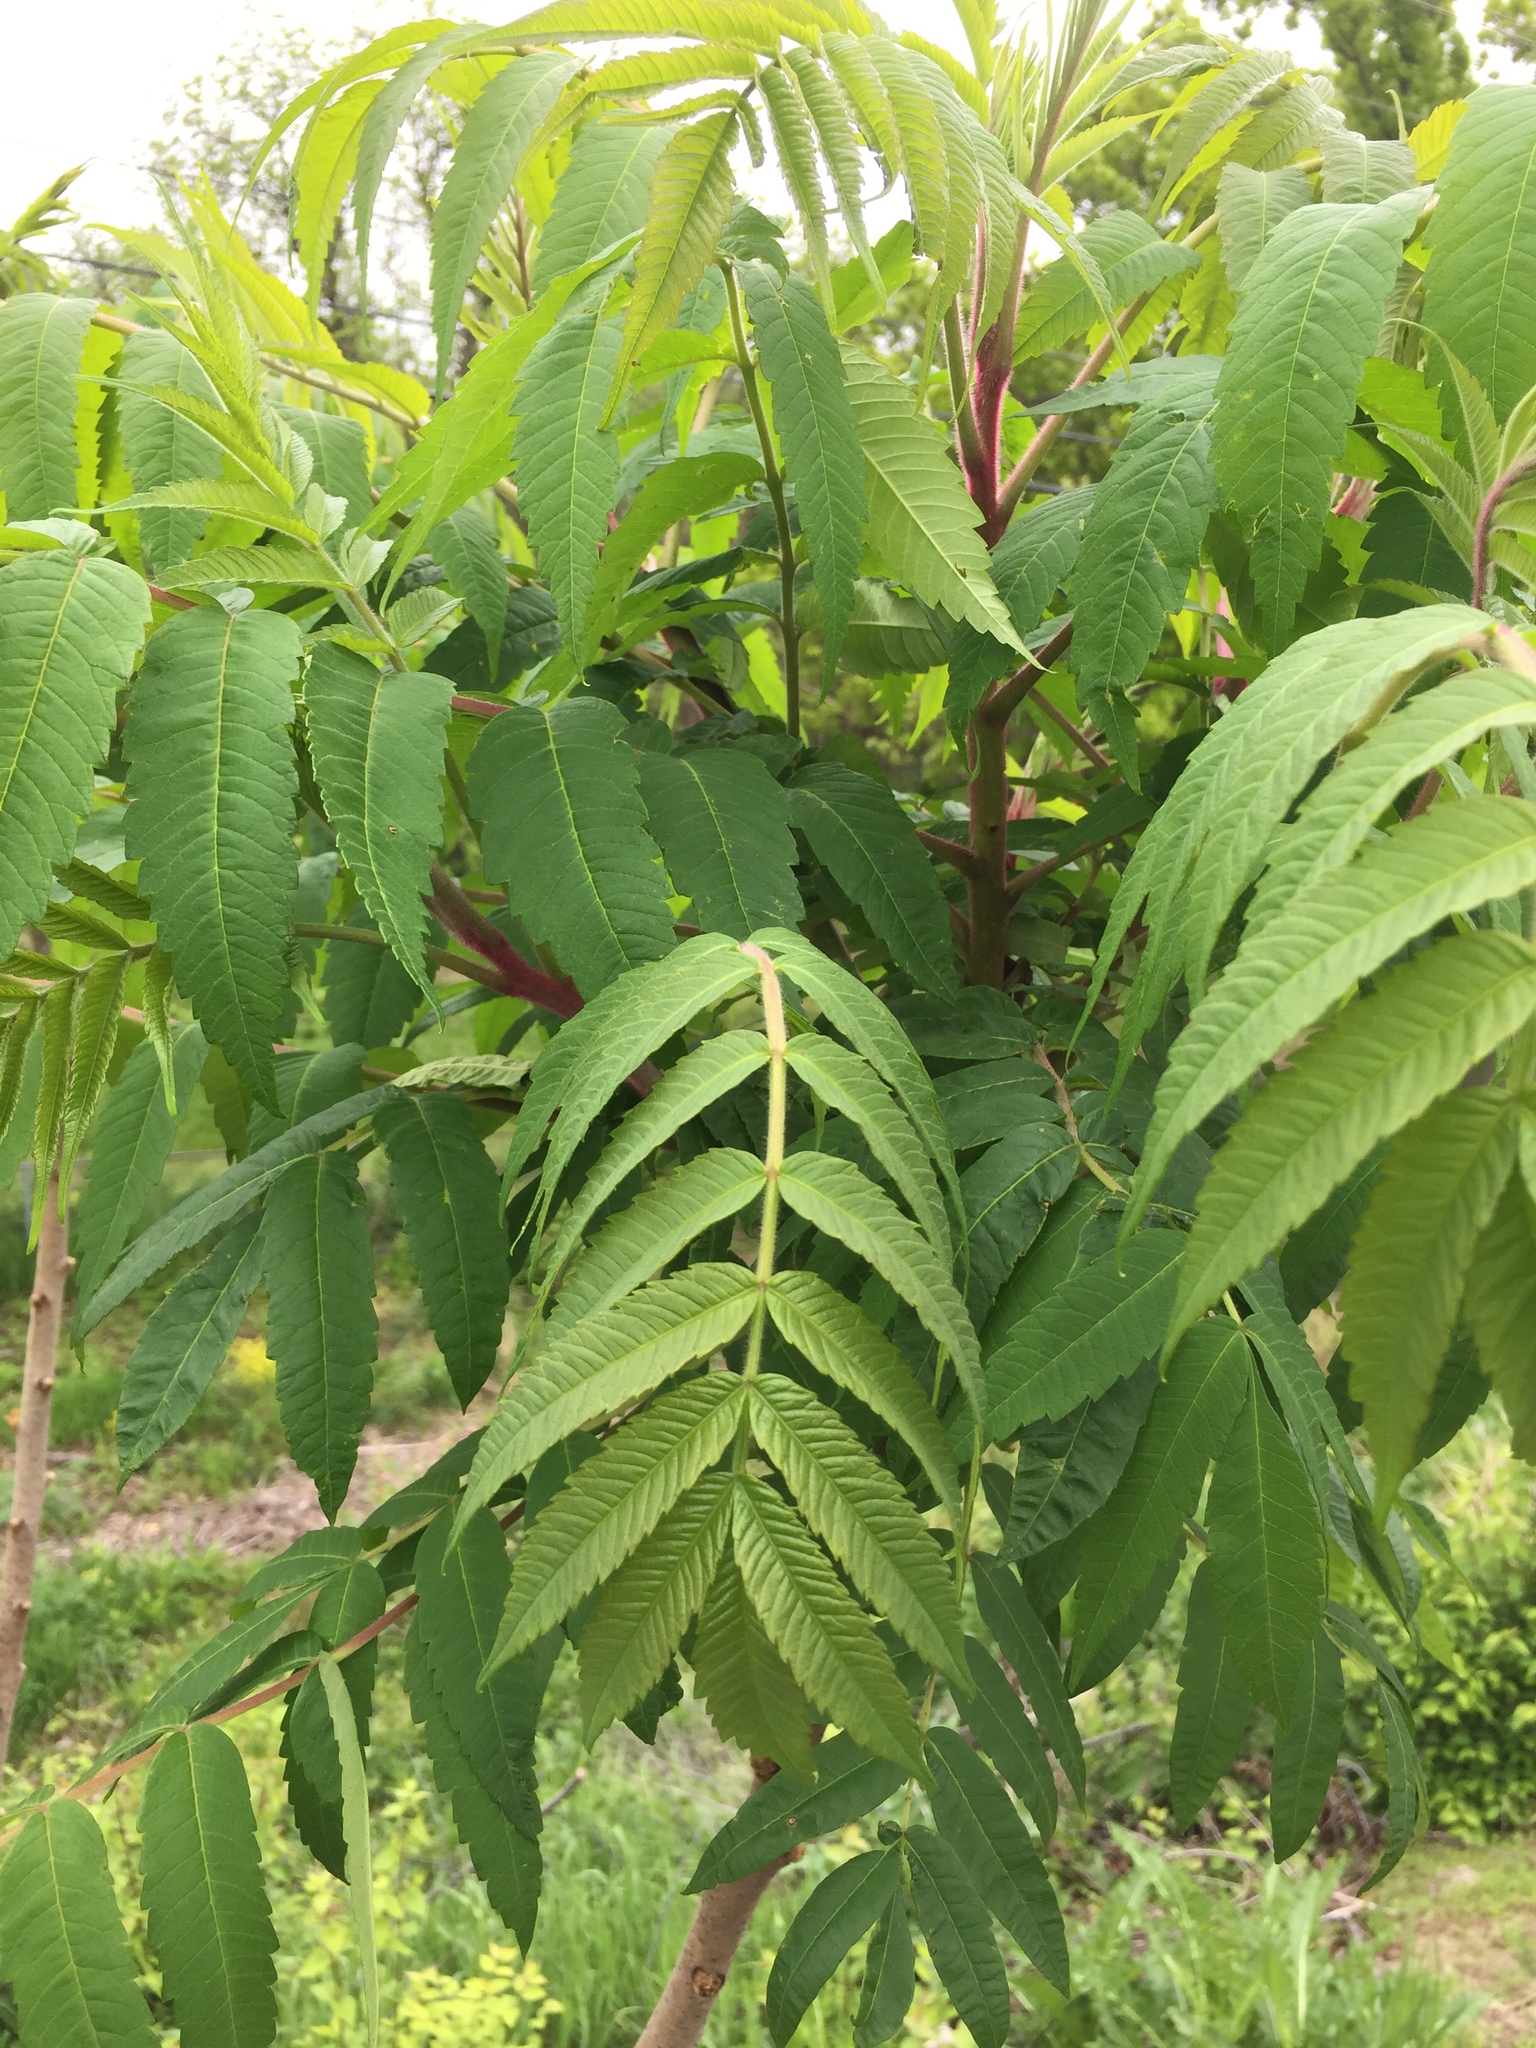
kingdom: Plantae
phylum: Tracheophyta
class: Magnoliopsida
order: Sapindales
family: Anacardiaceae
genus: Rhus
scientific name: Rhus typhina
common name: Staghorn sumac
